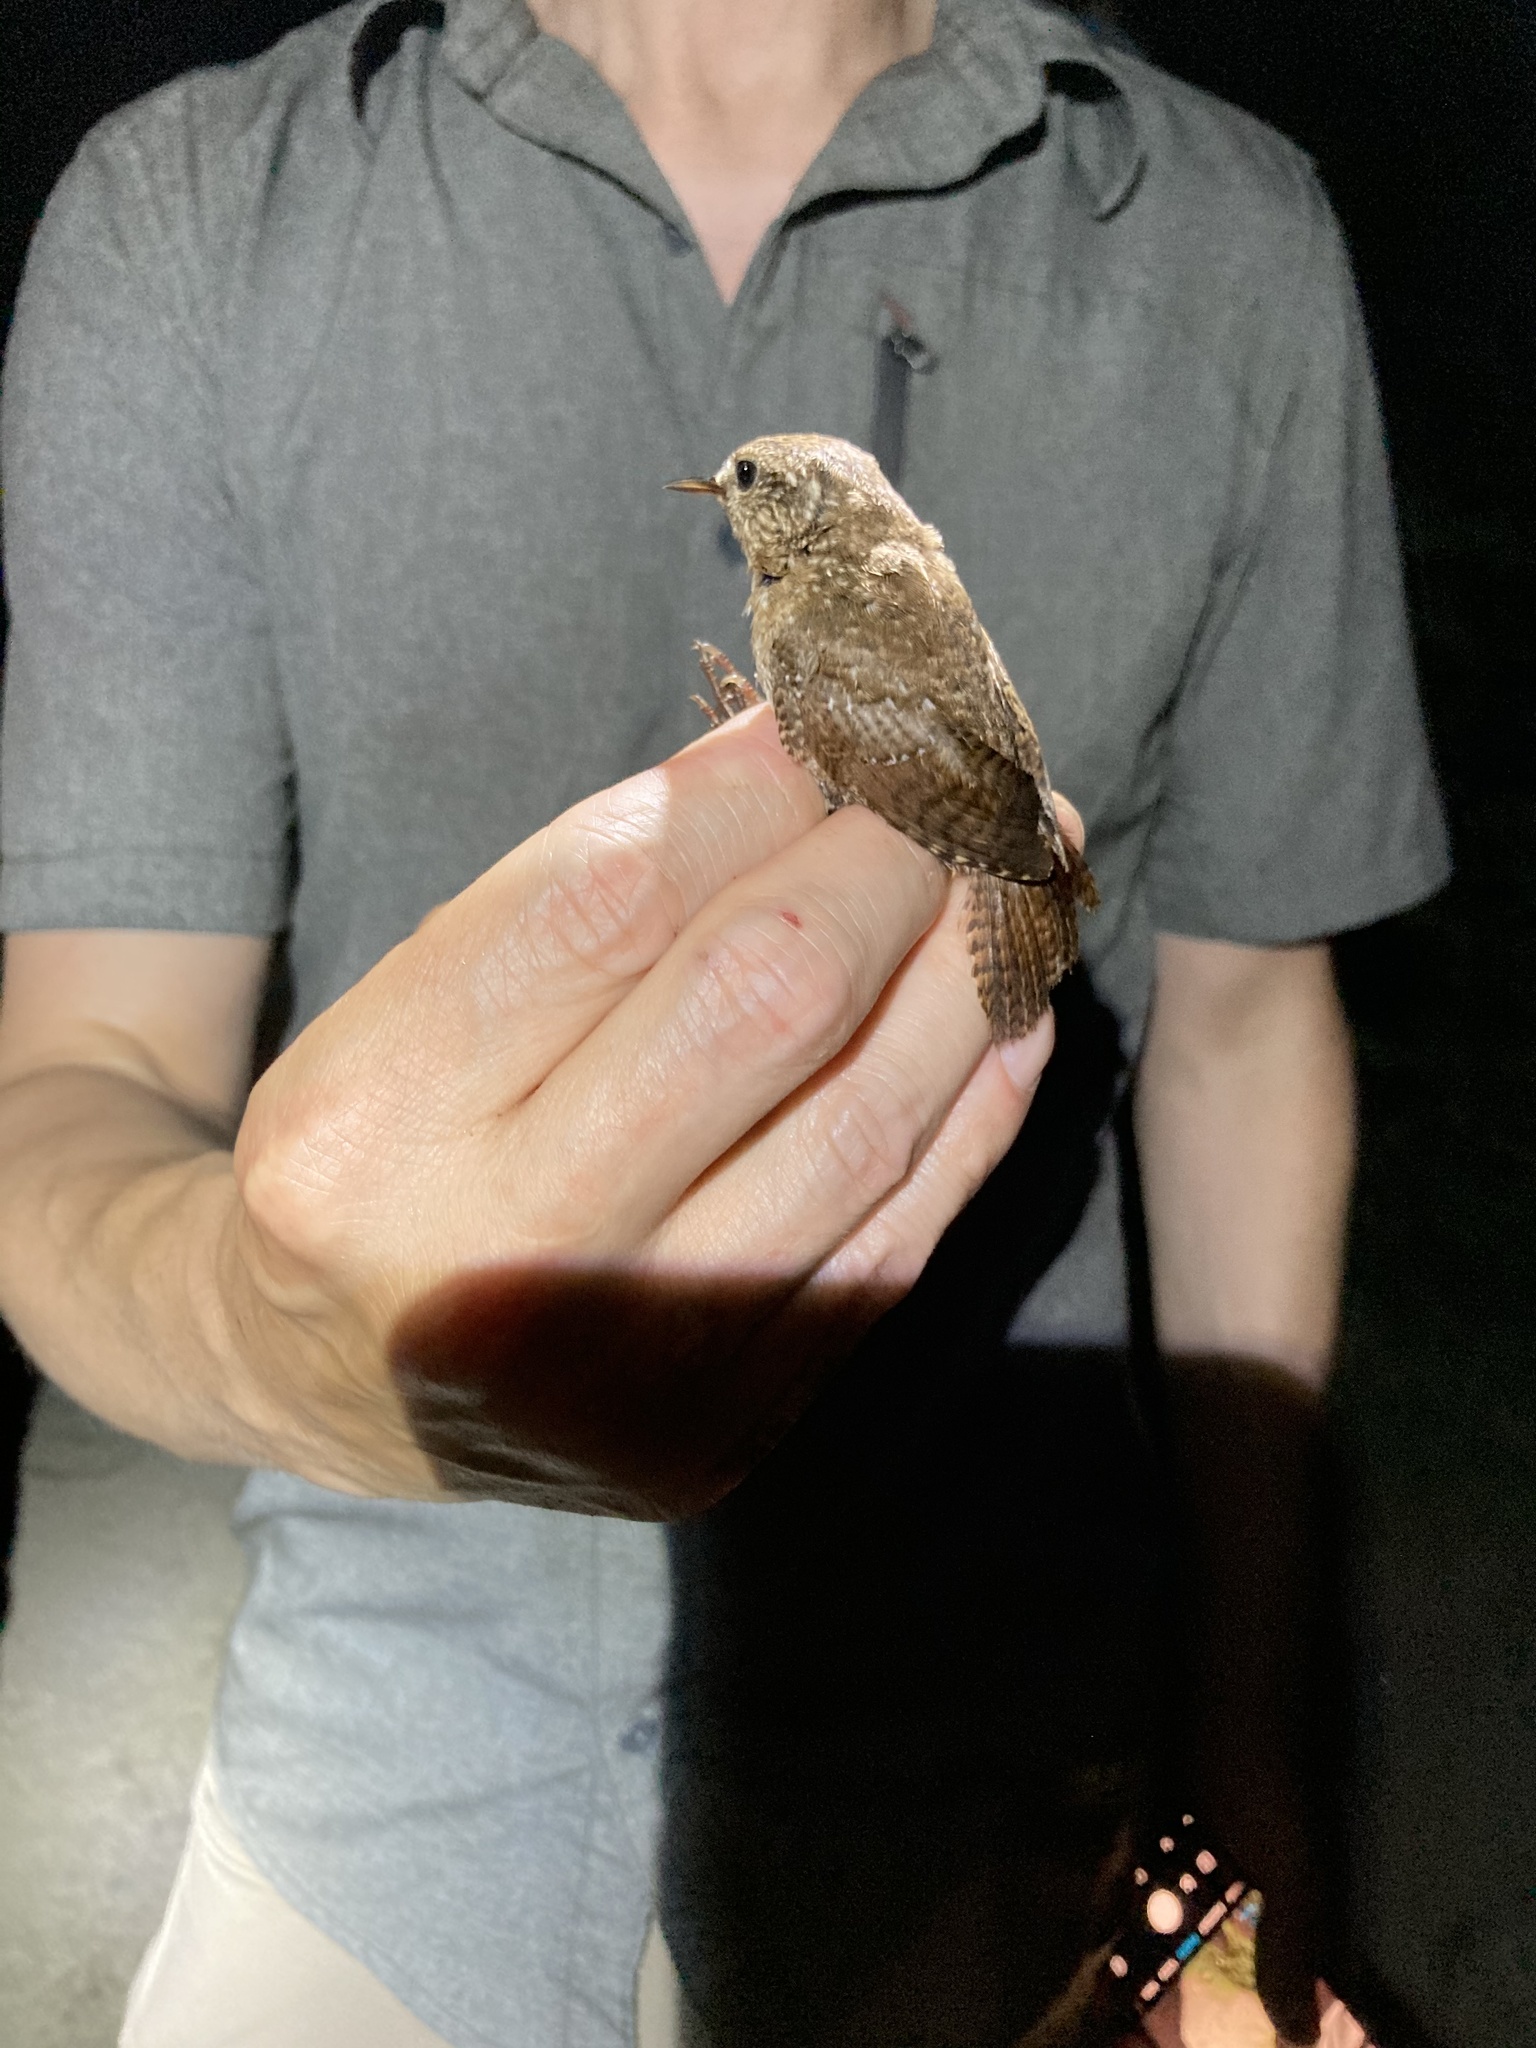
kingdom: Animalia
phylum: Chordata
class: Aves
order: Passeriformes
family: Troglodytidae
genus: Troglodytes
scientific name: Troglodytes hiemalis
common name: Winter wren
